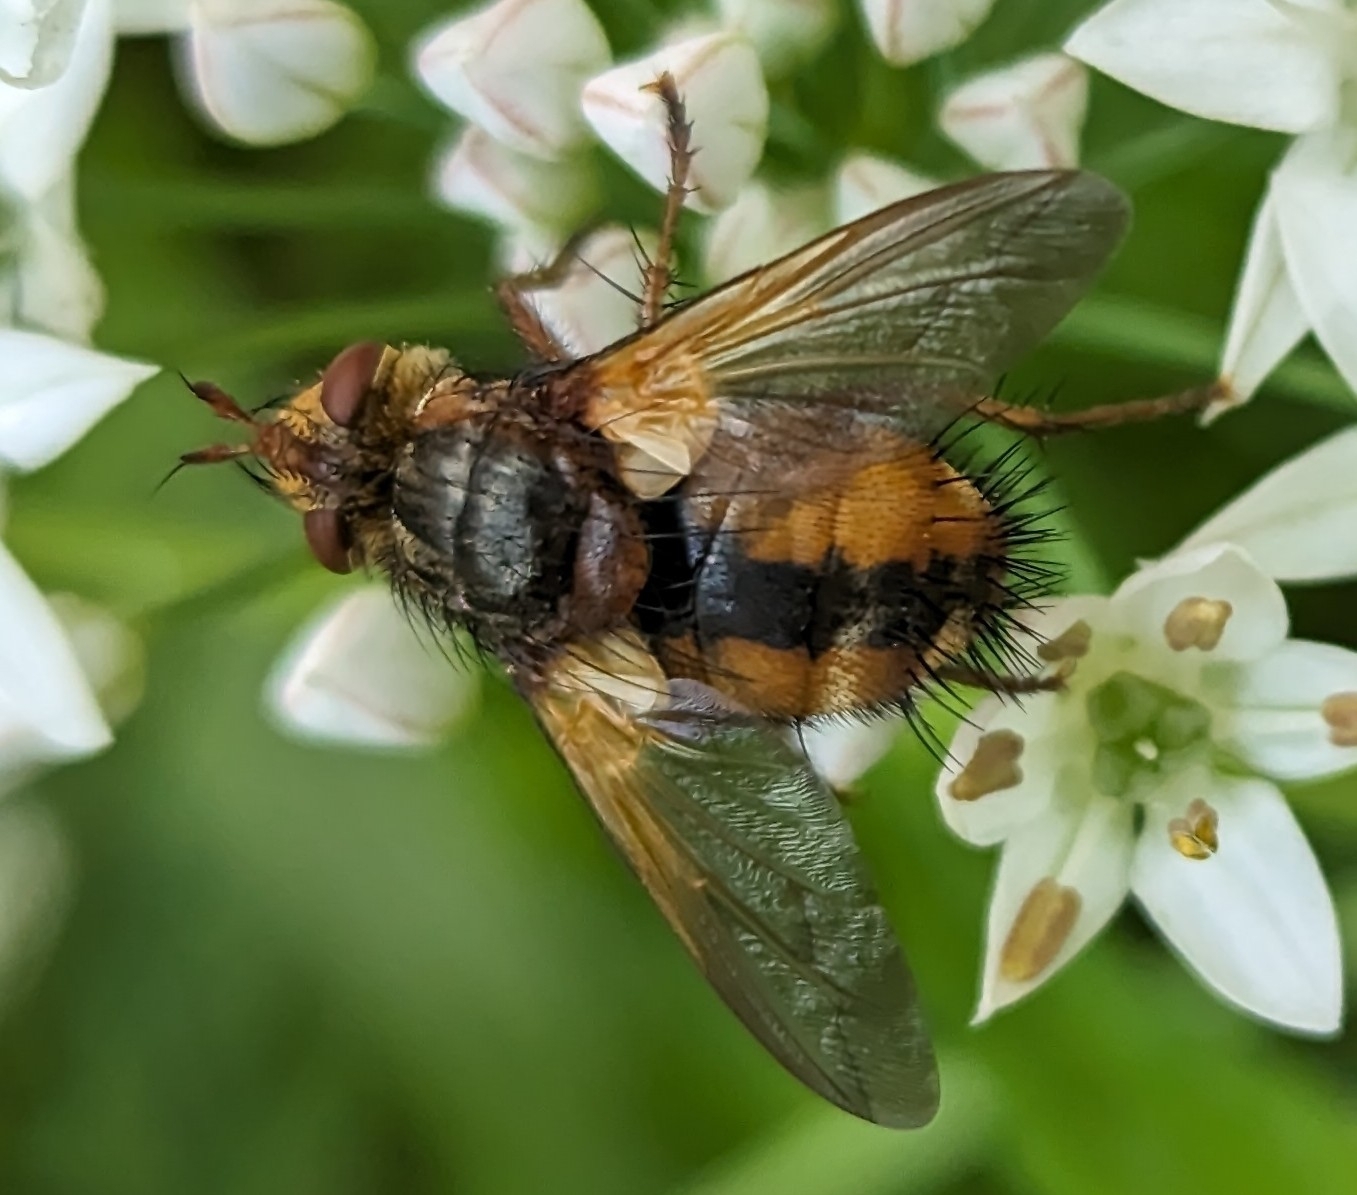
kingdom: Animalia
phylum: Arthropoda
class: Insecta
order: Diptera
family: Tachinidae
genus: Tachina
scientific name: Tachina fera
